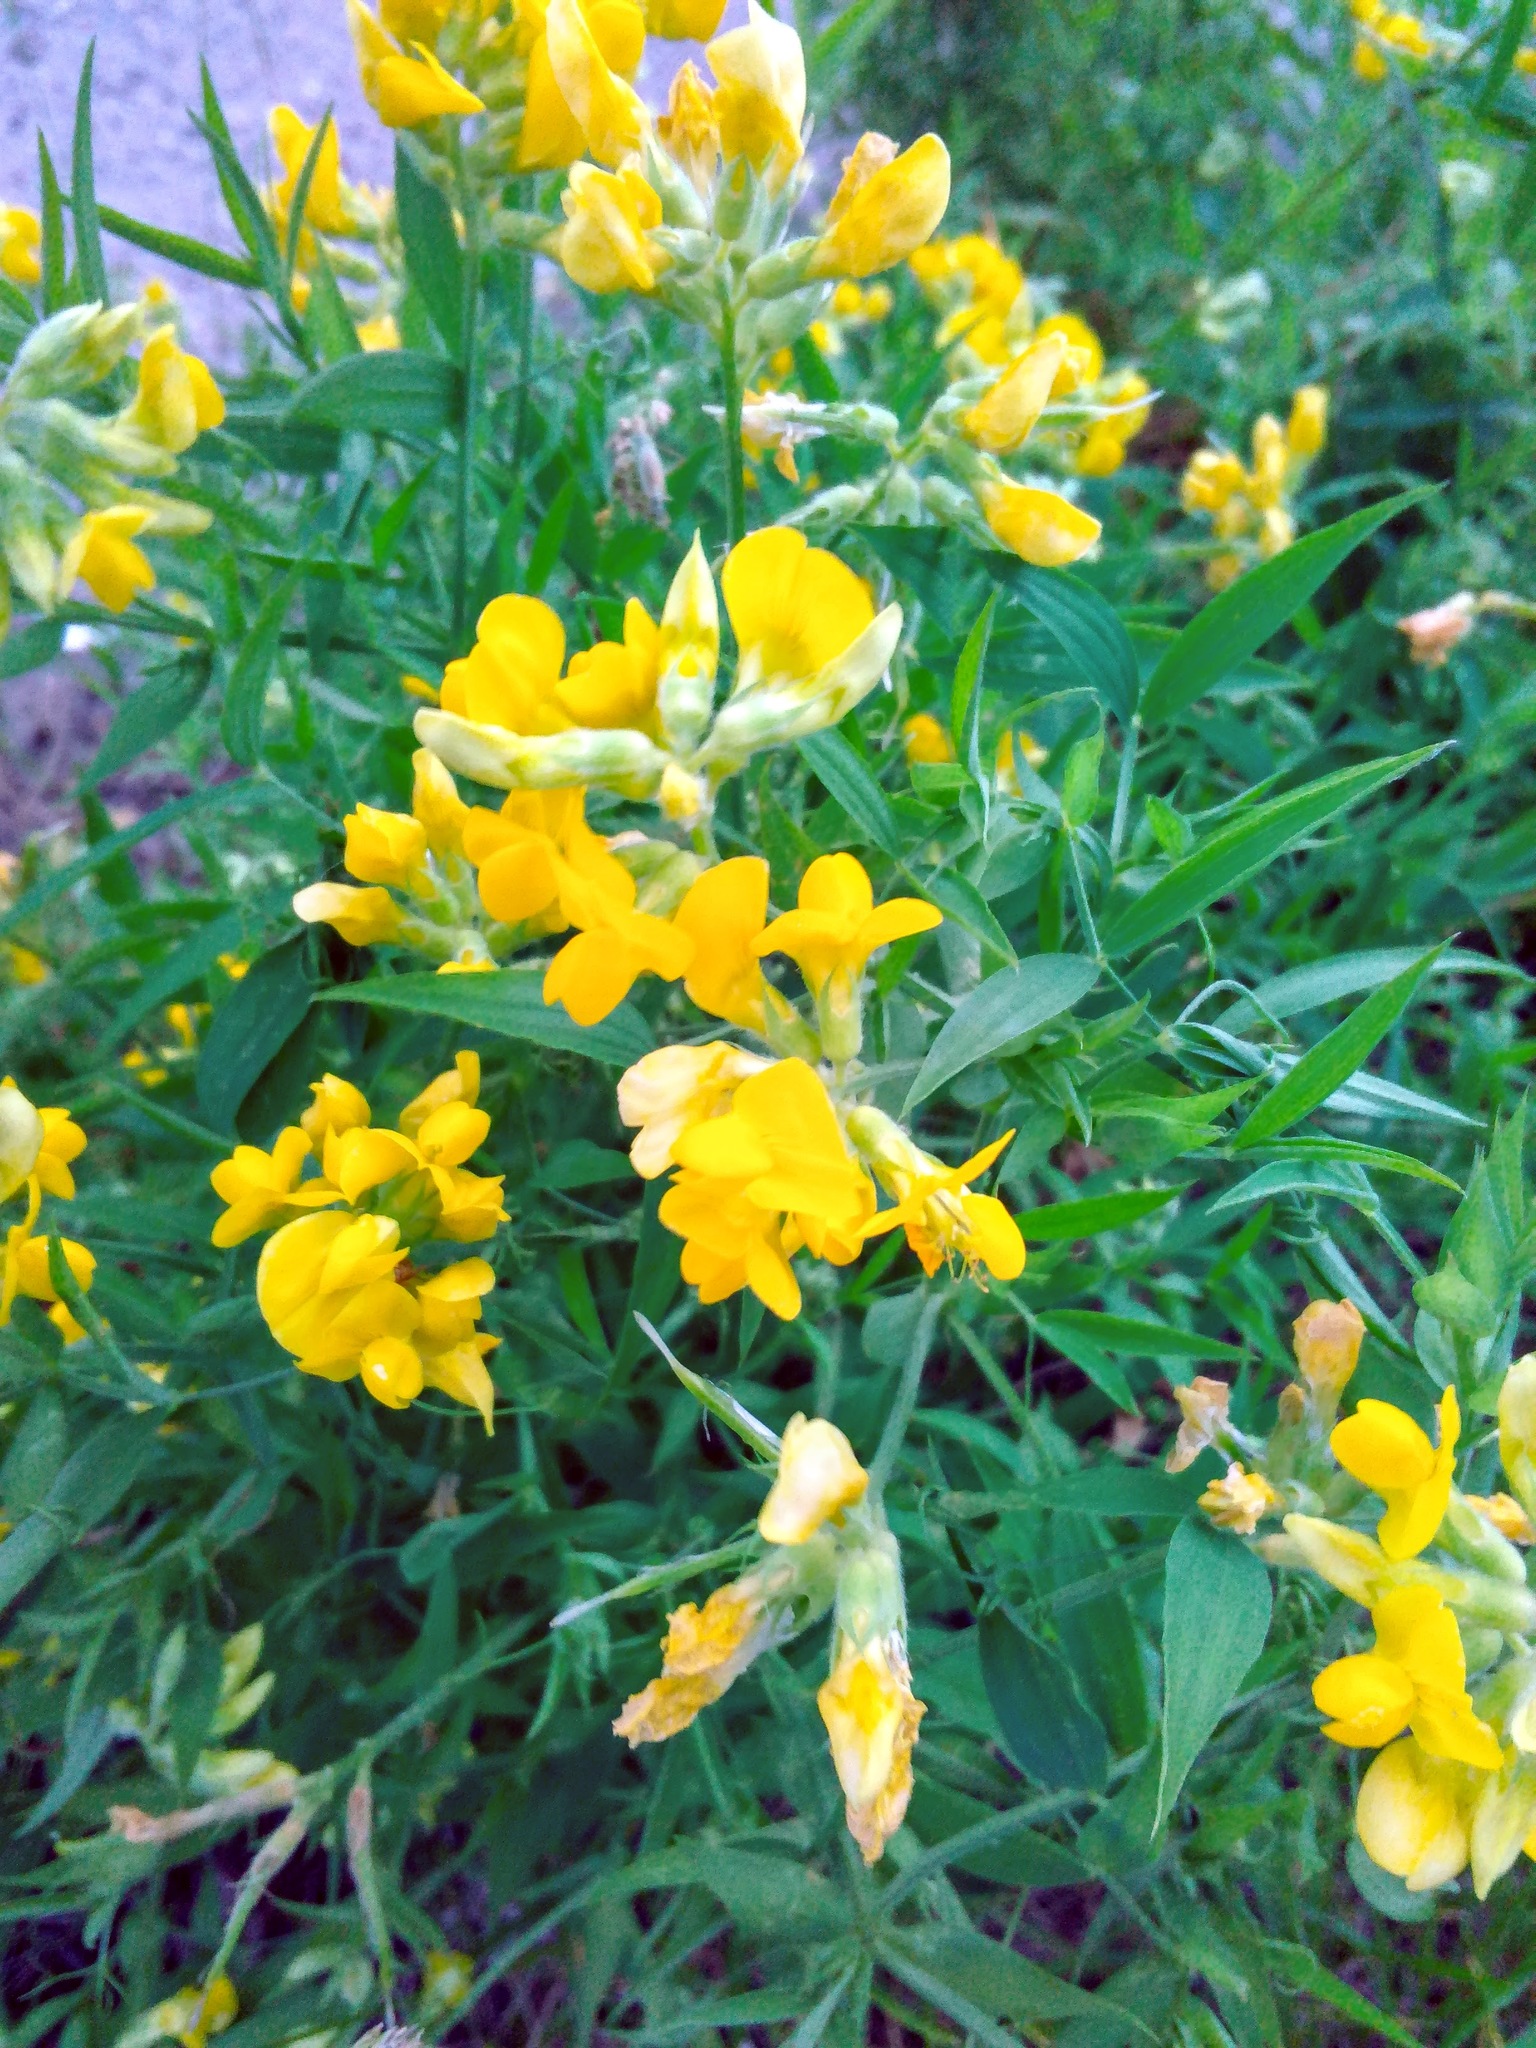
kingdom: Plantae
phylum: Tracheophyta
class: Magnoliopsida
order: Fabales
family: Fabaceae
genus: Lathyrus
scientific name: Lathyrus pratensis
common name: Meadow vetchling
